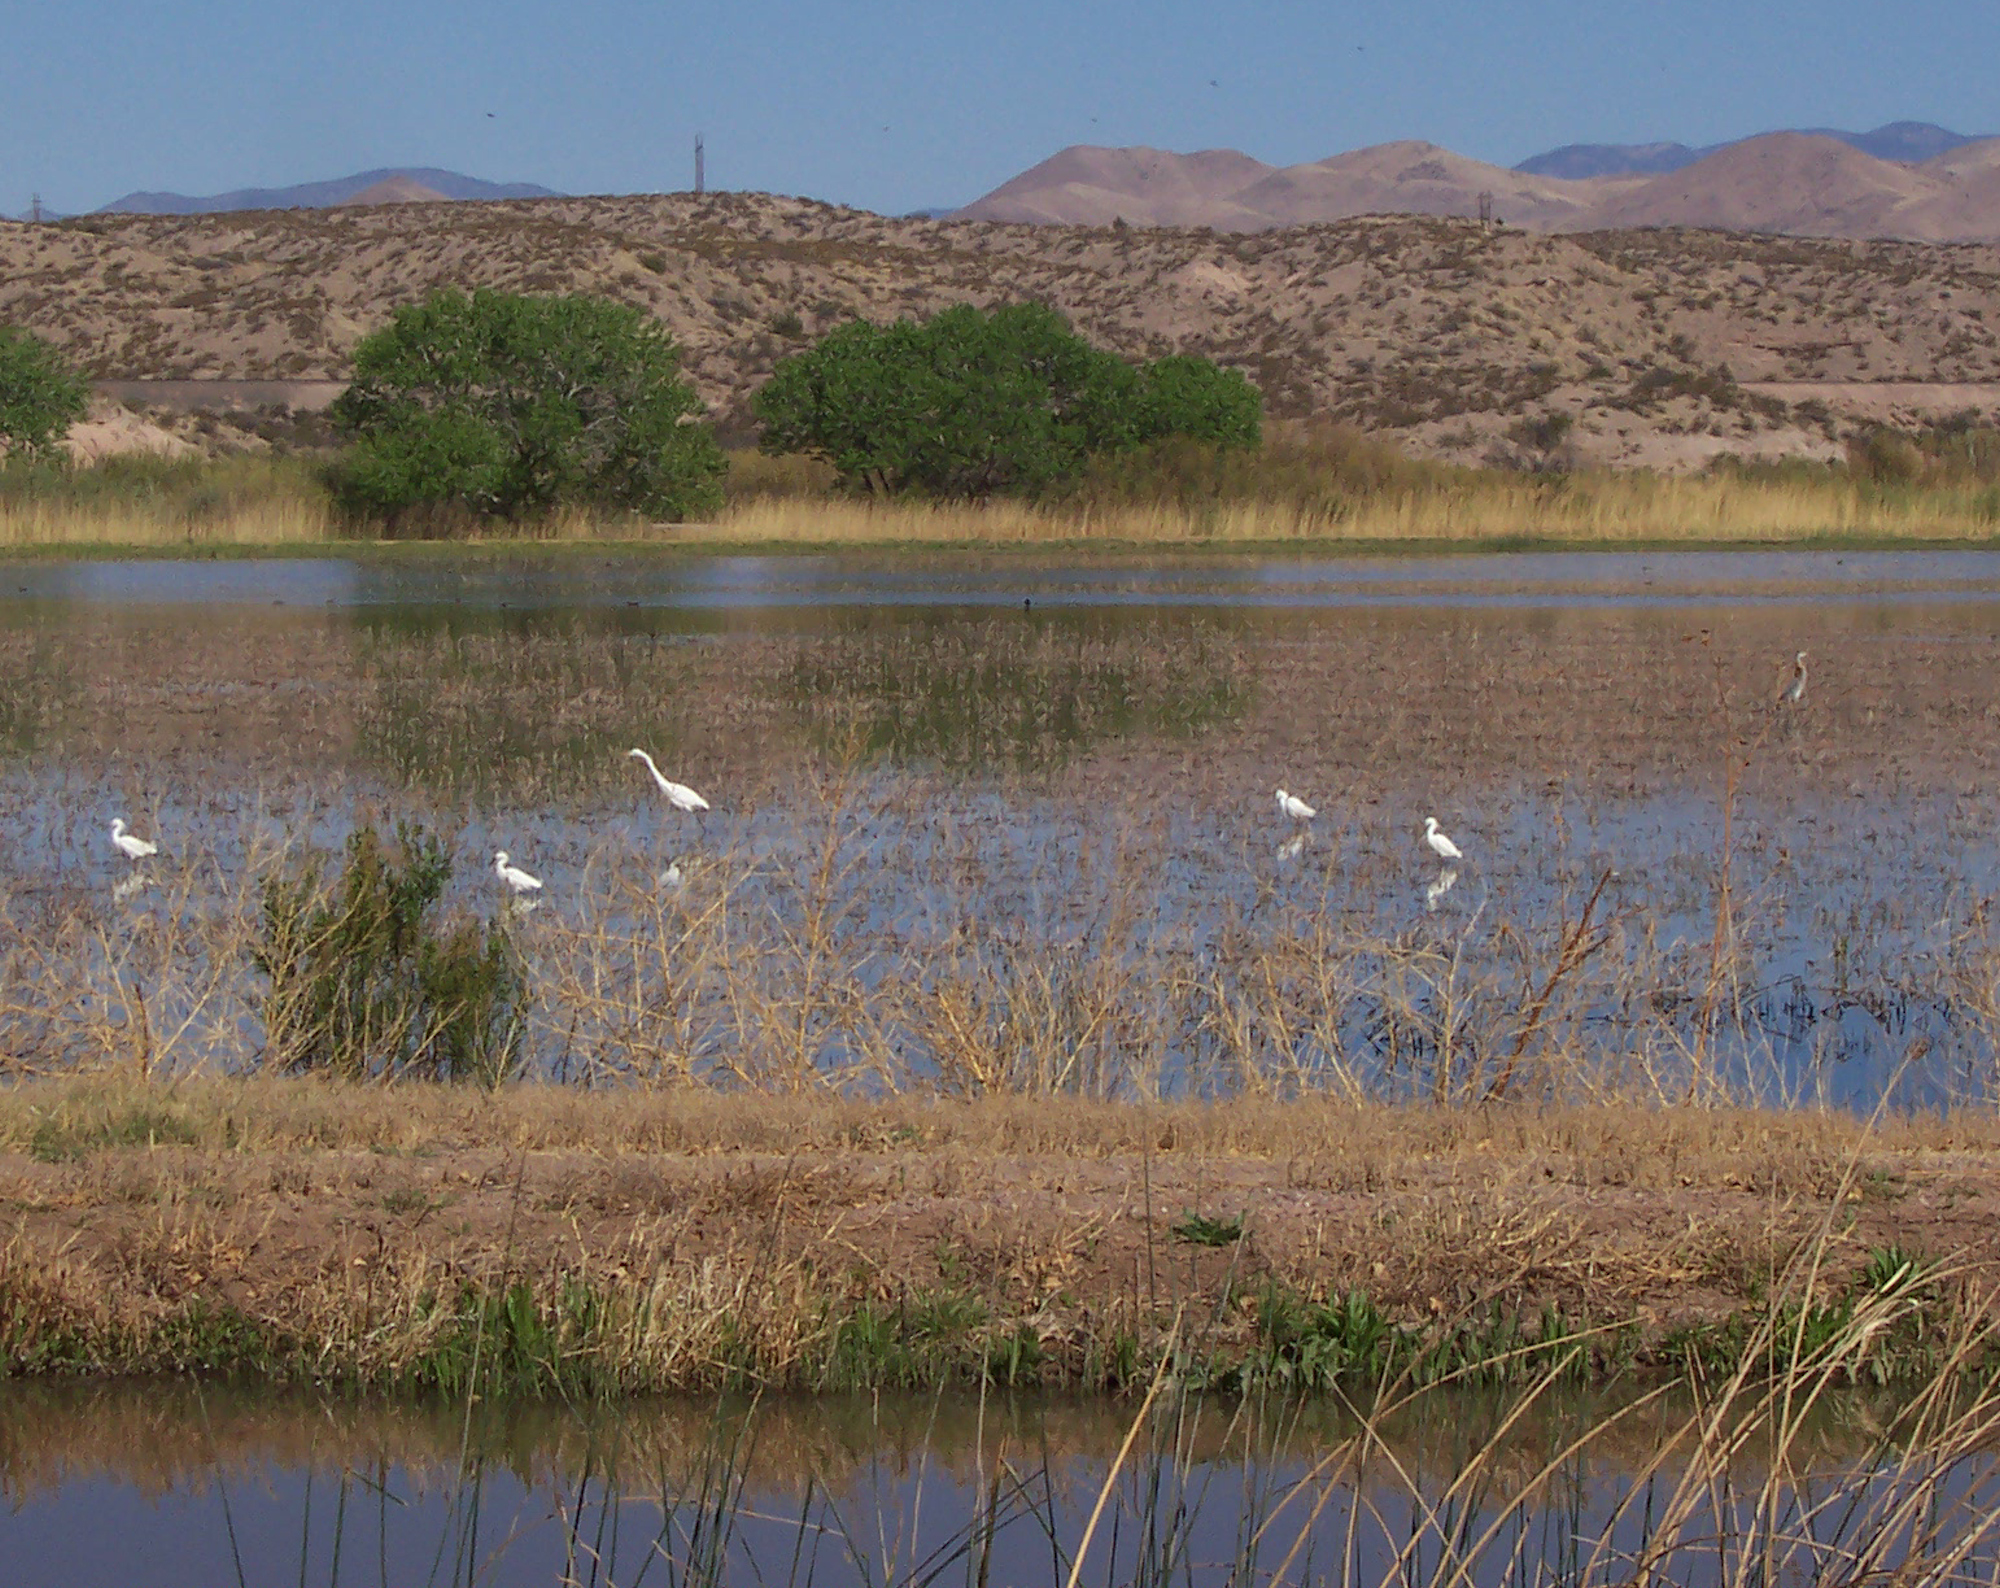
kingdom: Animalia
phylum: Chordata
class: Aves
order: Pelecaniformes
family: Ardeidae
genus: Egretta
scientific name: Egretta thula
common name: Snowy egret
